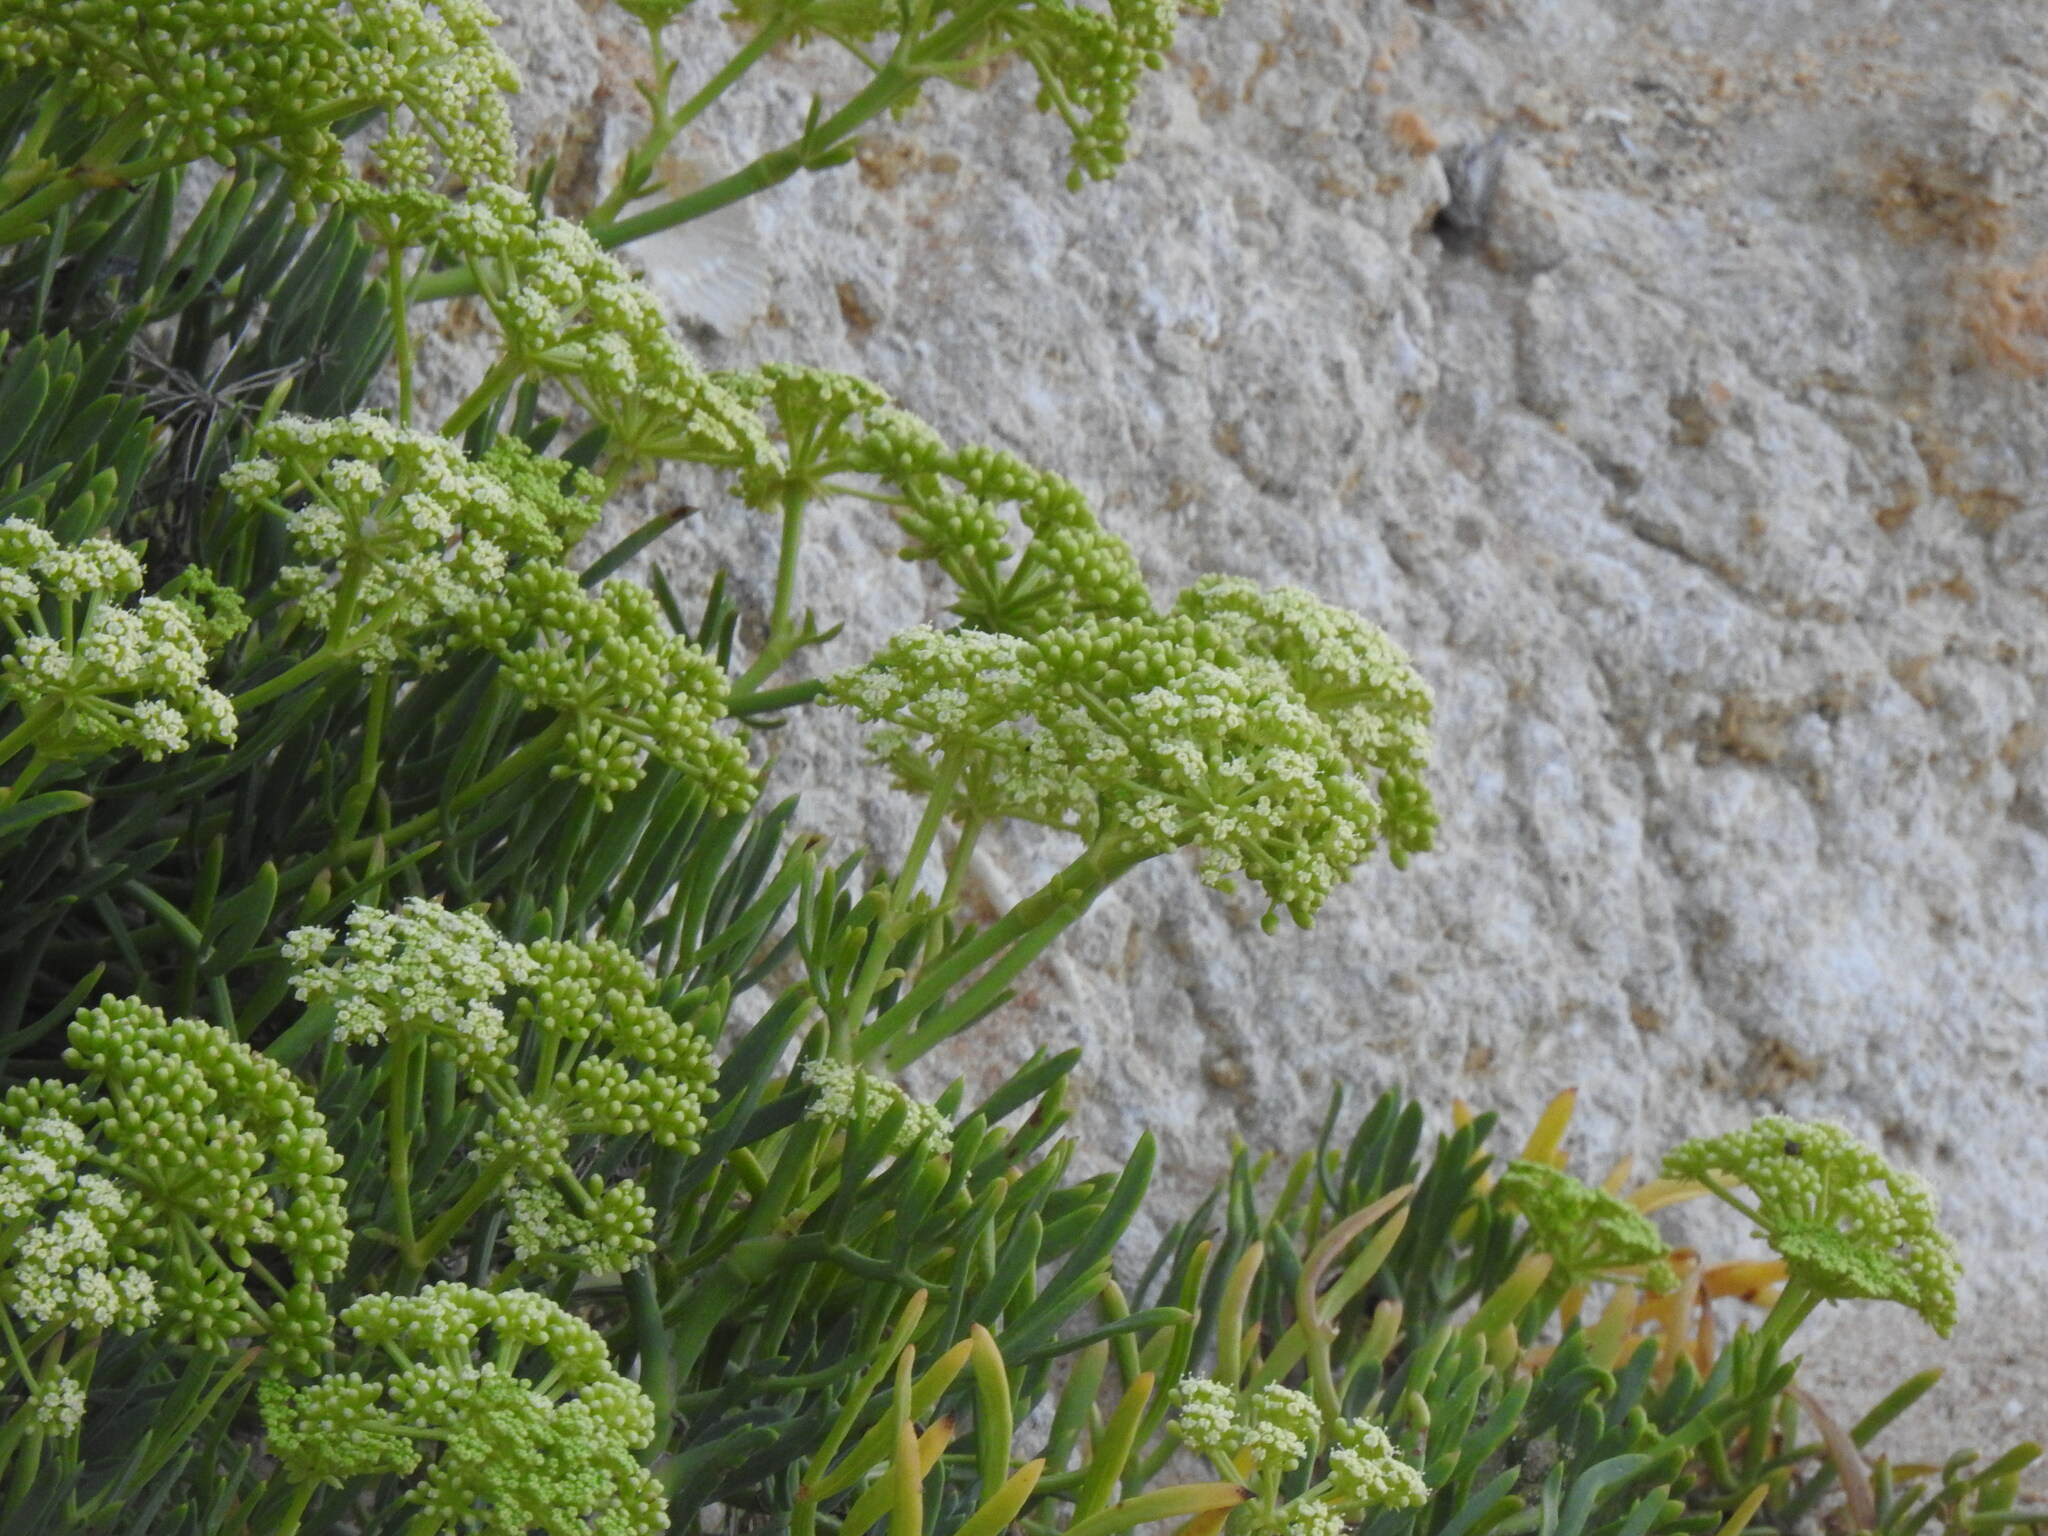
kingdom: Plantae
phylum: Tracheophyta
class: Magnoliopsida
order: Apiales
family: Apiaceae
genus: Crithmum
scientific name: Crithmum maritimum
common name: Rock samphire
